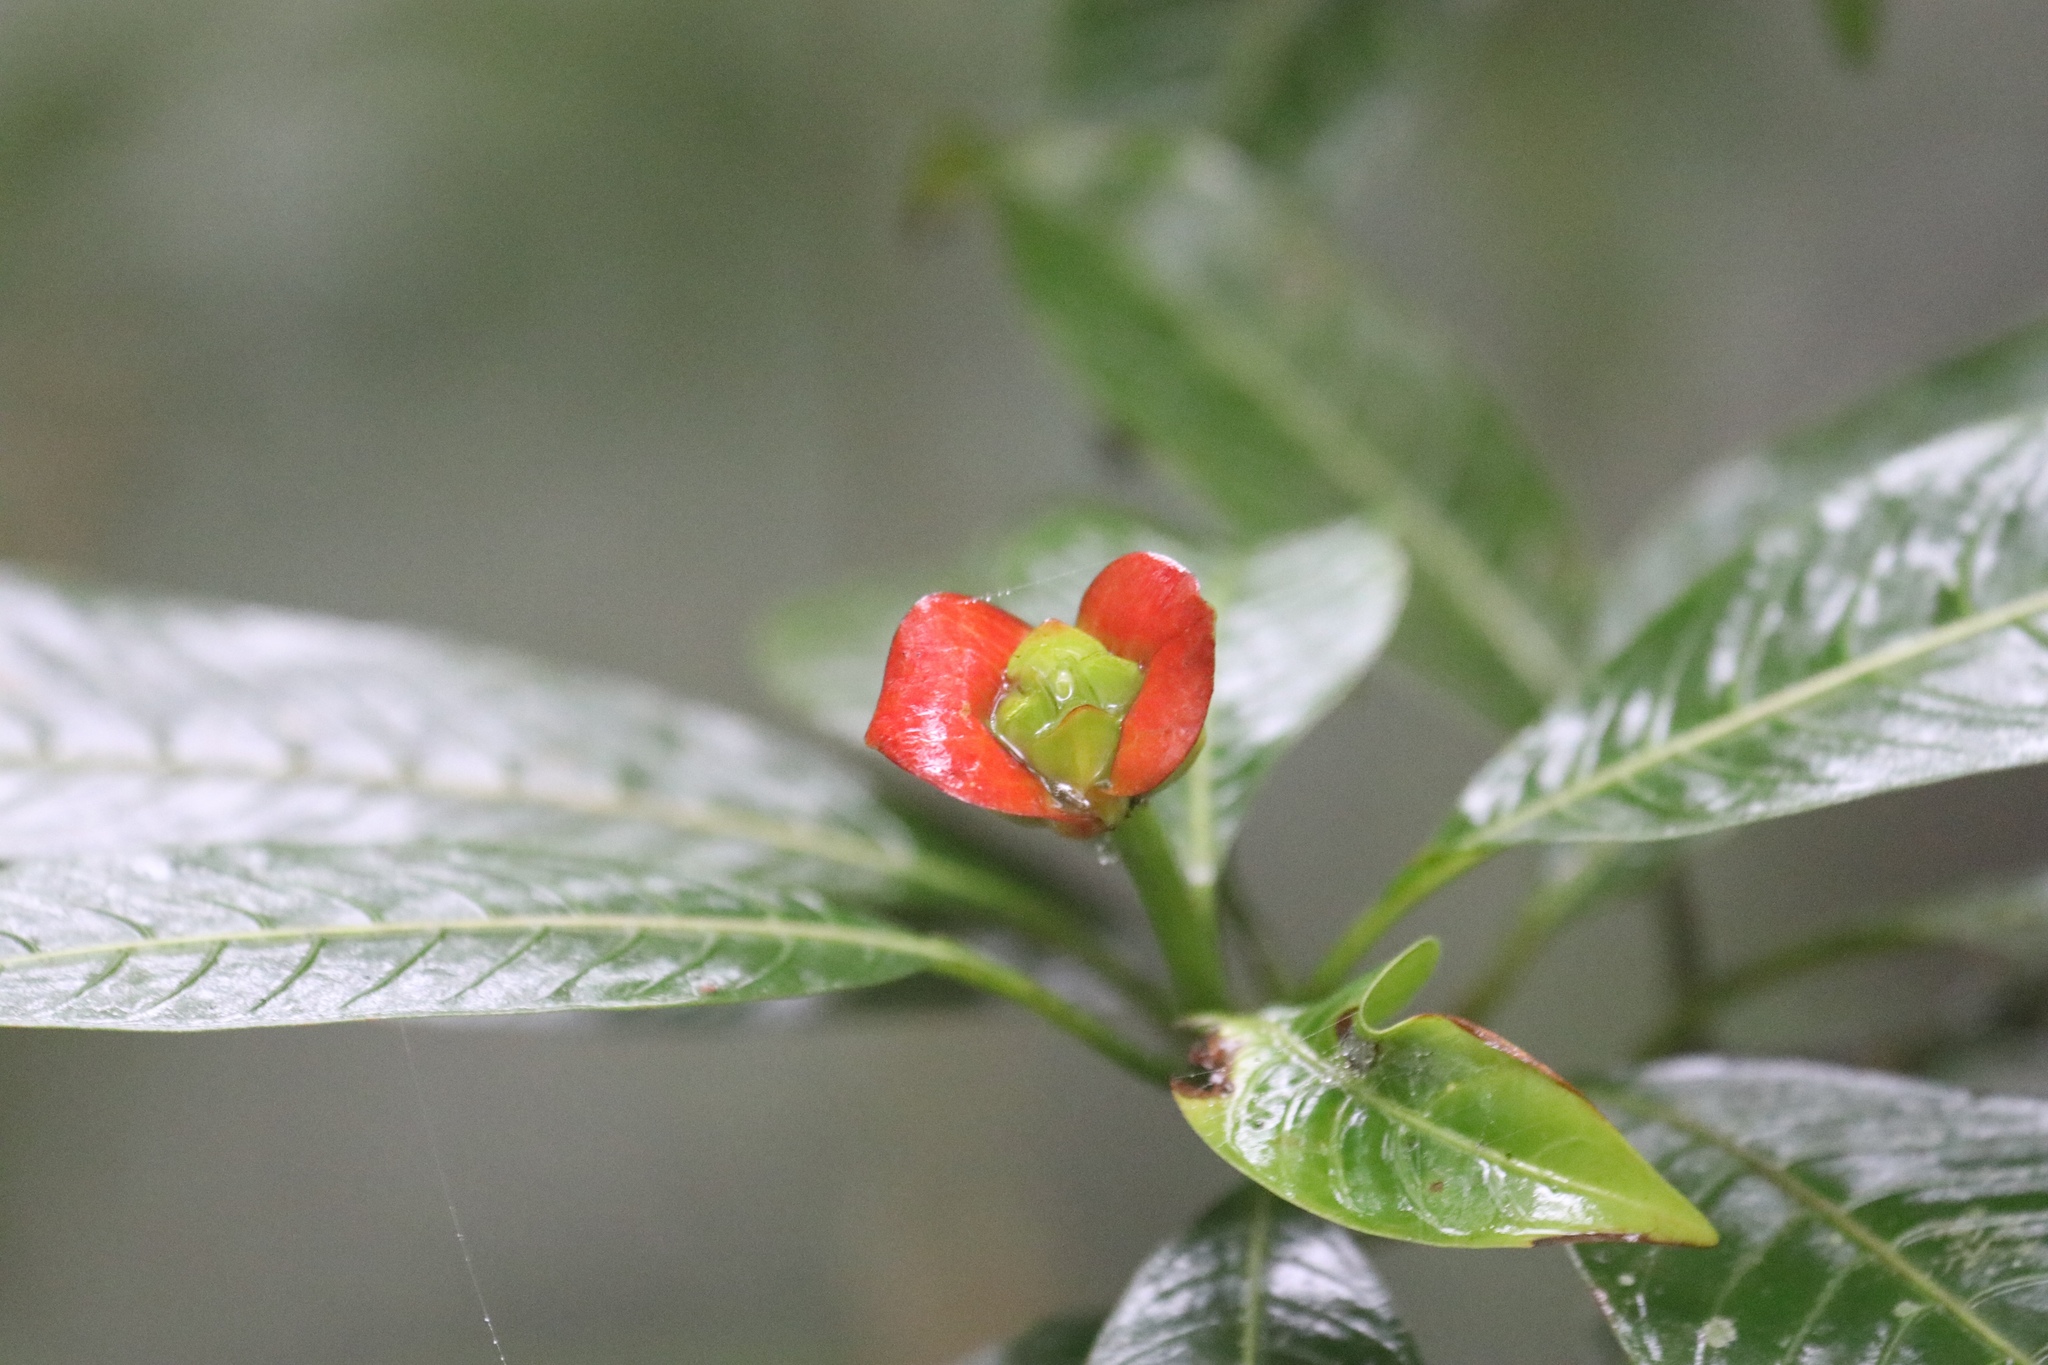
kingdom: Plantae
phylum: Tracheophyta
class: Magnoliopsida
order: Gentianales
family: Rubiaceae
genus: Palicourea
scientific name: Palicourea elata
